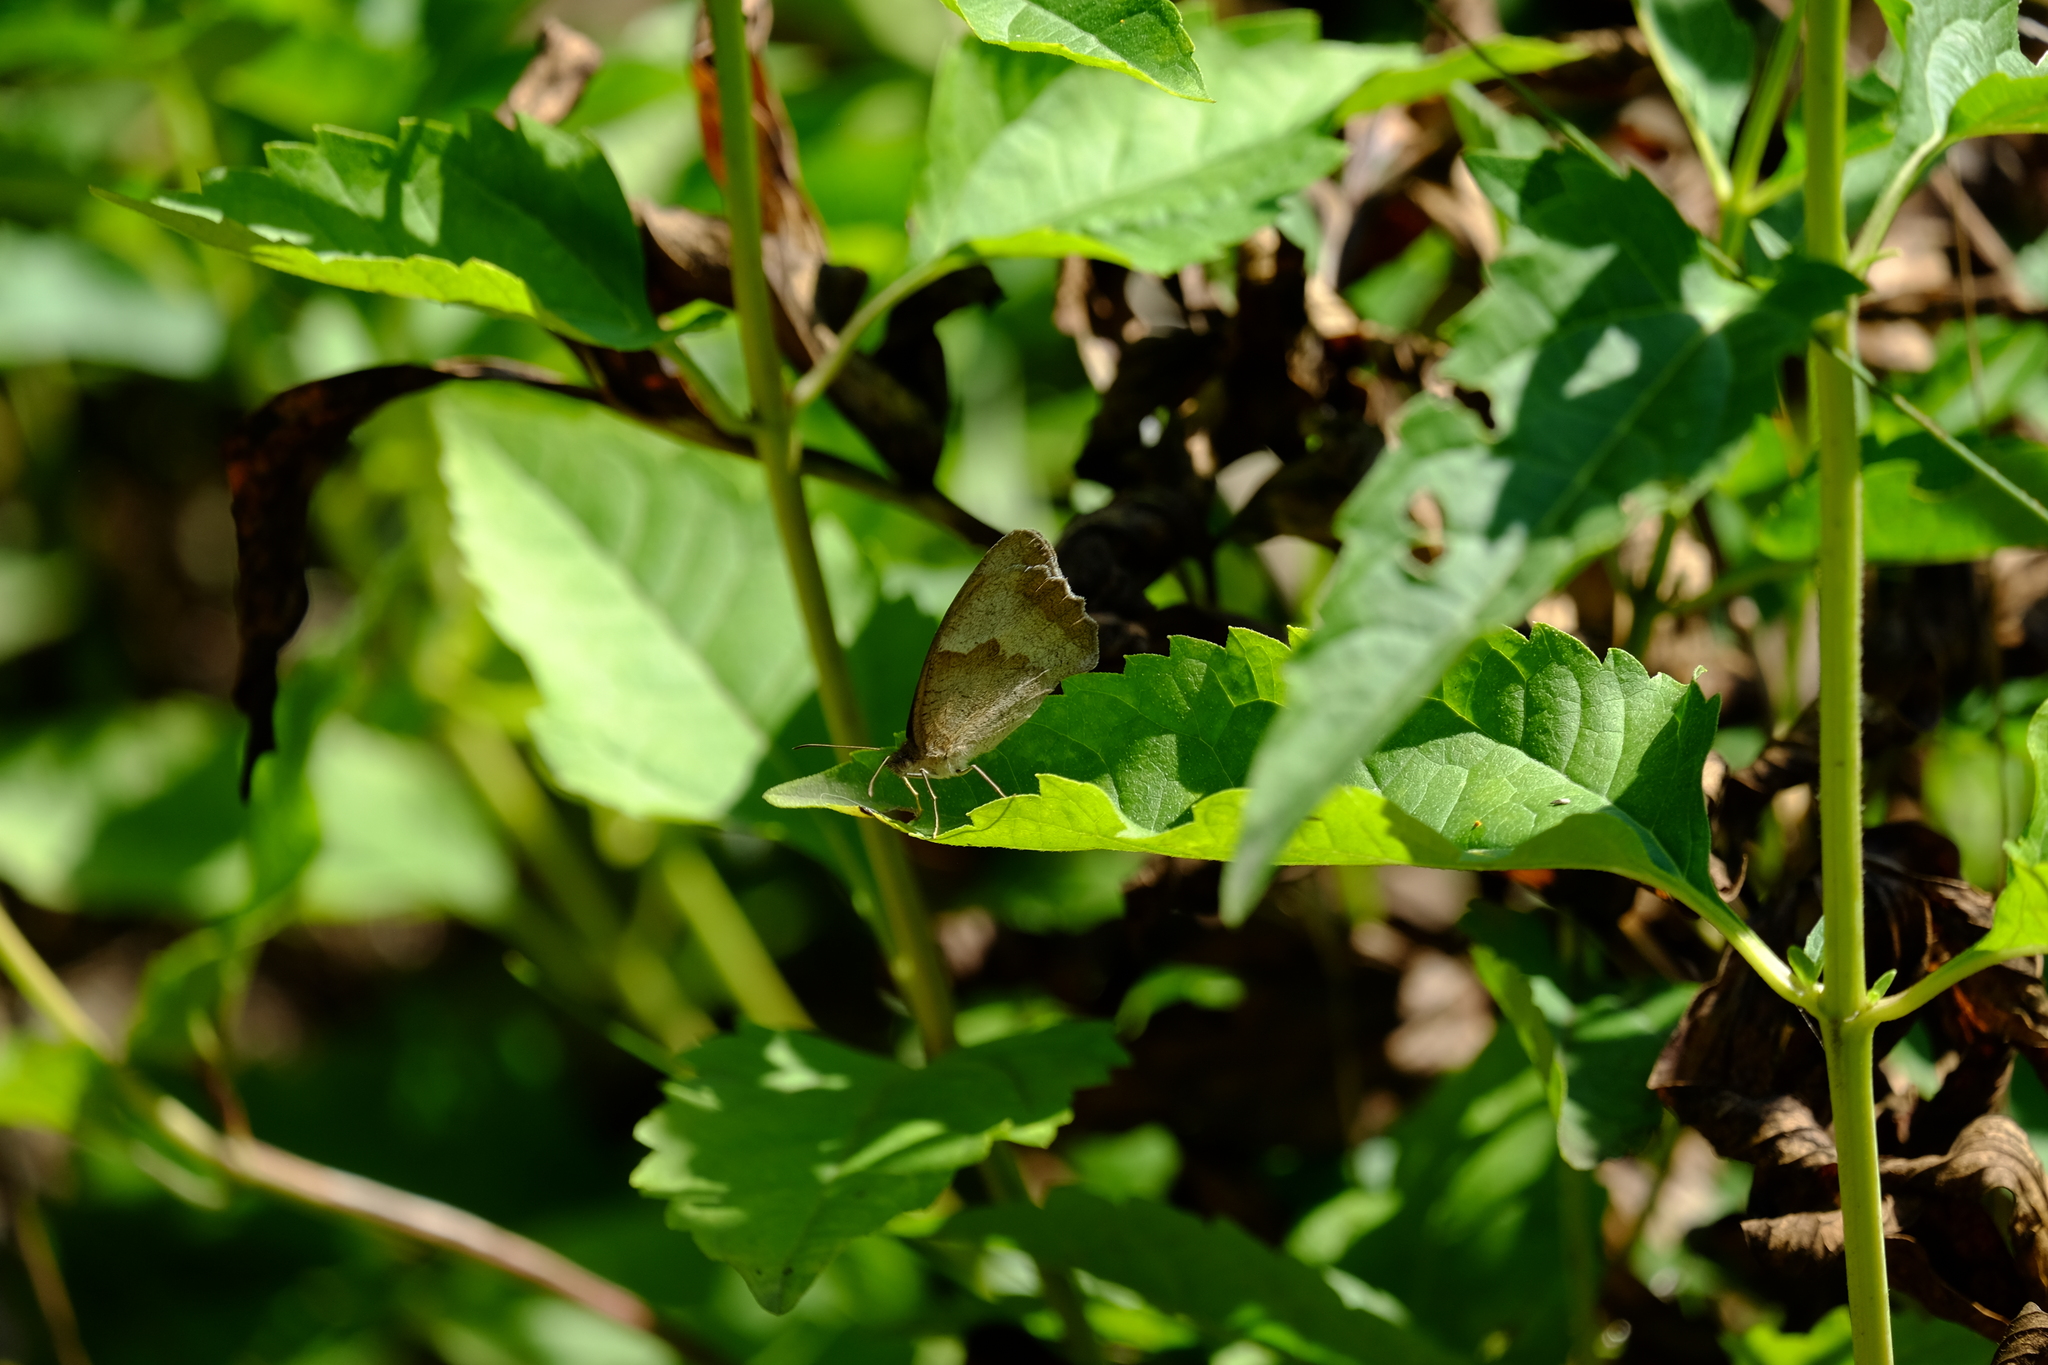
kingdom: Animalia
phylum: Arthropoda
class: Insecta
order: Lepidoptera
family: Nymphalidae
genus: Maniola
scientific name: Maniola jurtina
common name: Meadow brown
